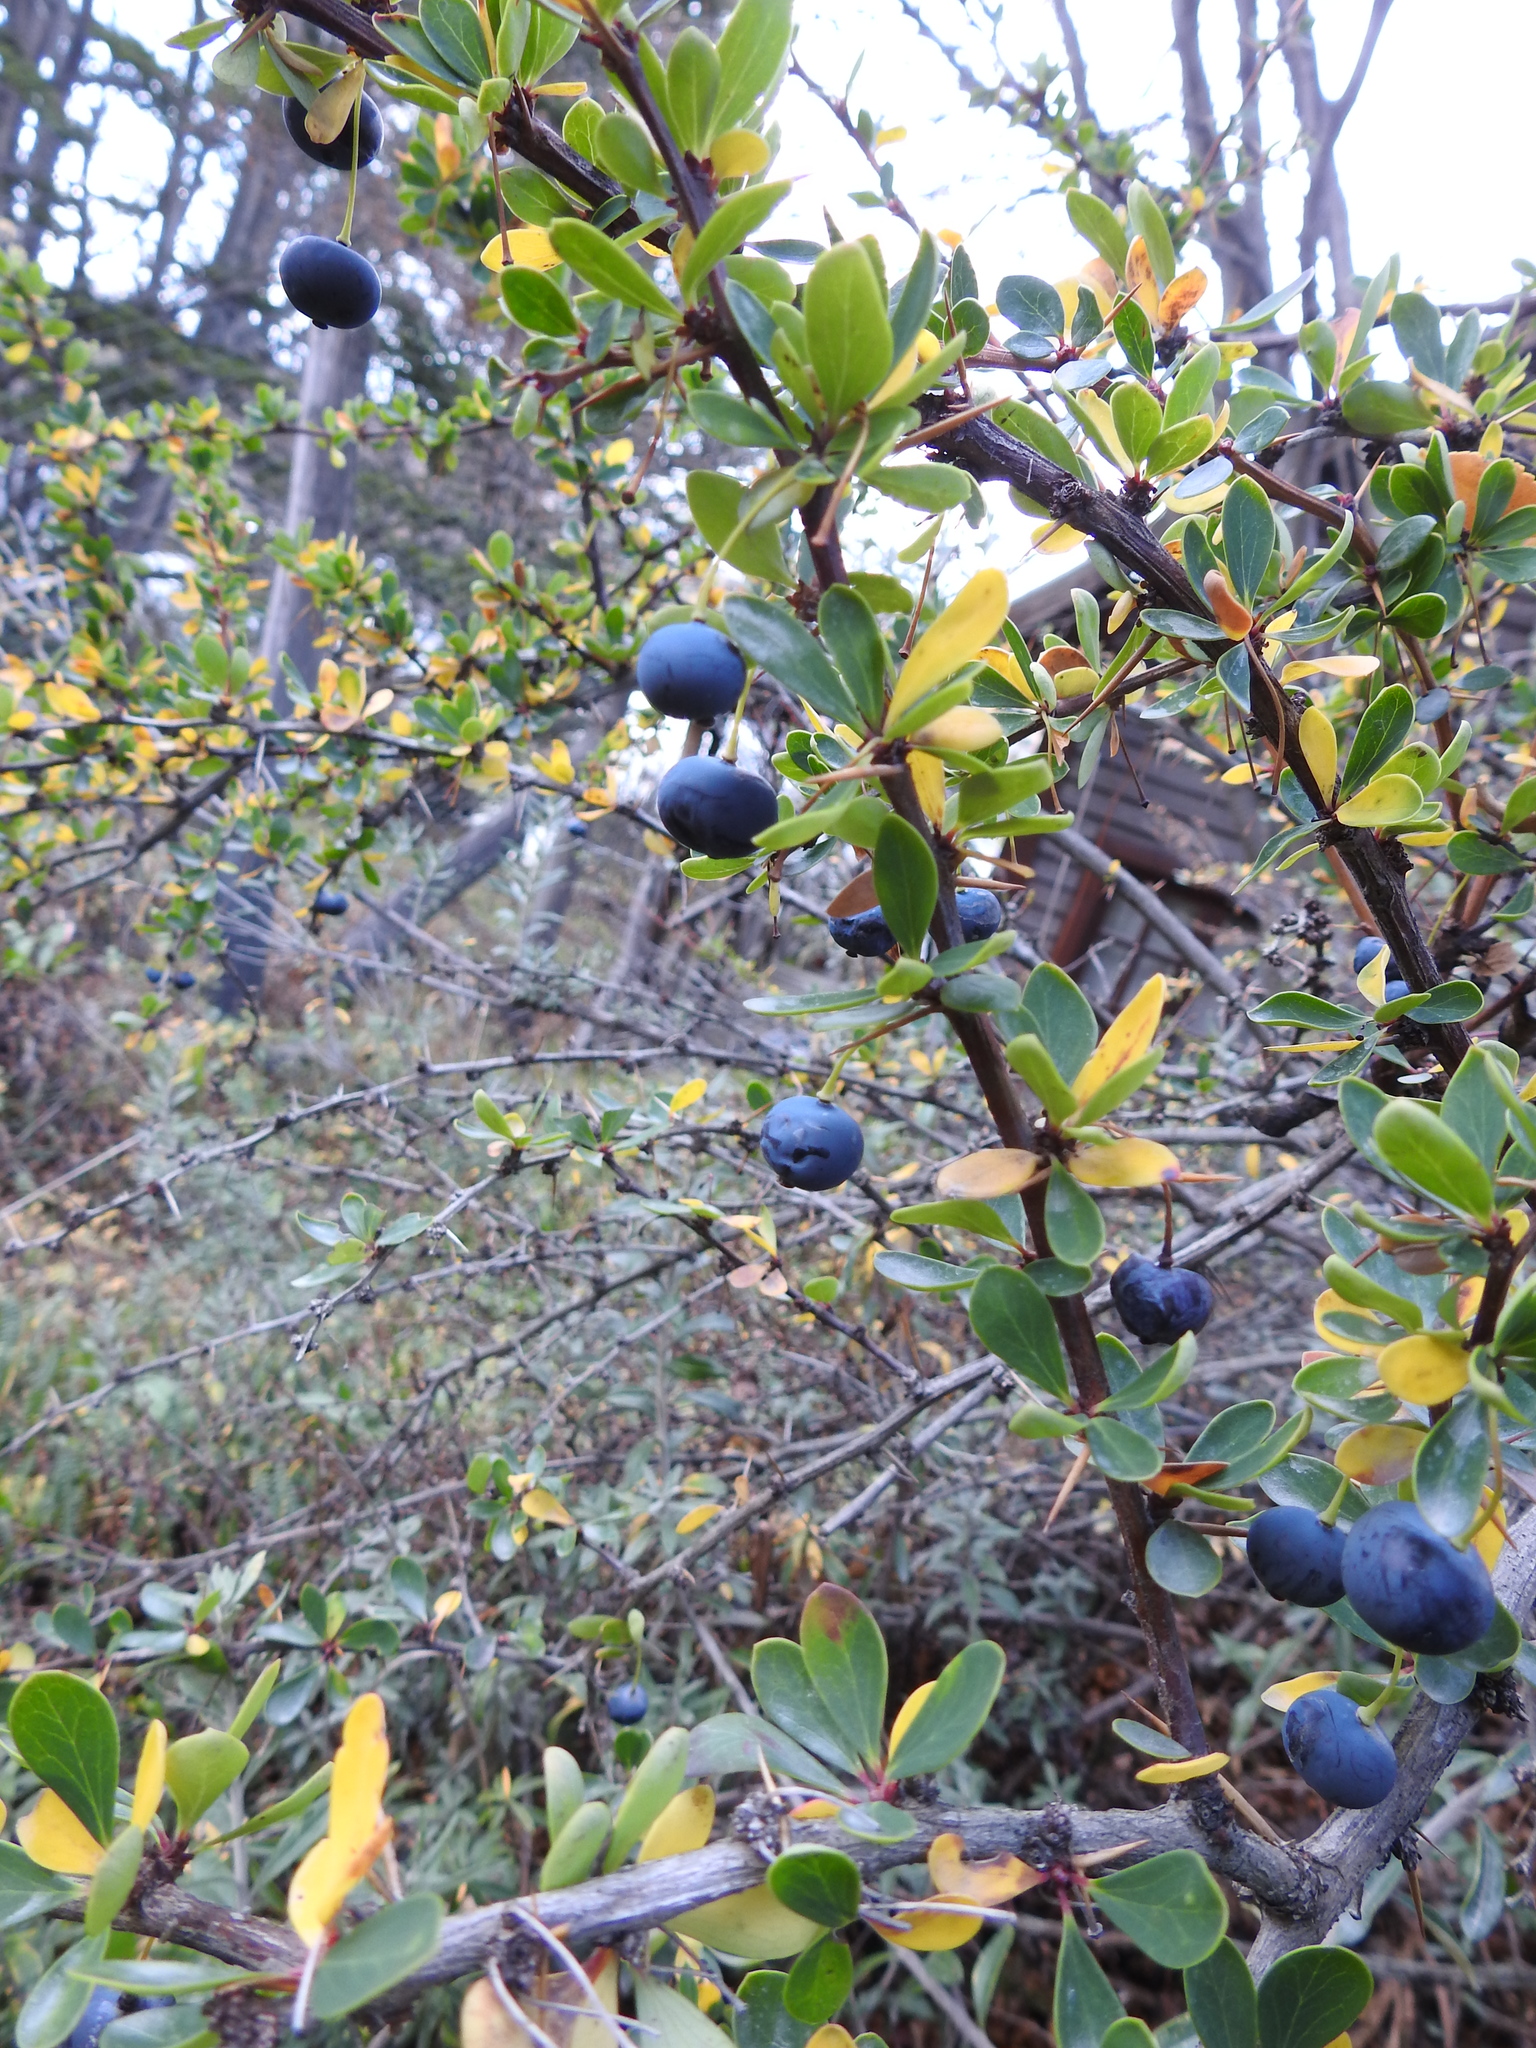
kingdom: Plantae
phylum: Tracheophyta
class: Magnoliopsida
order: Ranunculales
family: Berberidaceae
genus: Berberis
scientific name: Berberis microphylla
